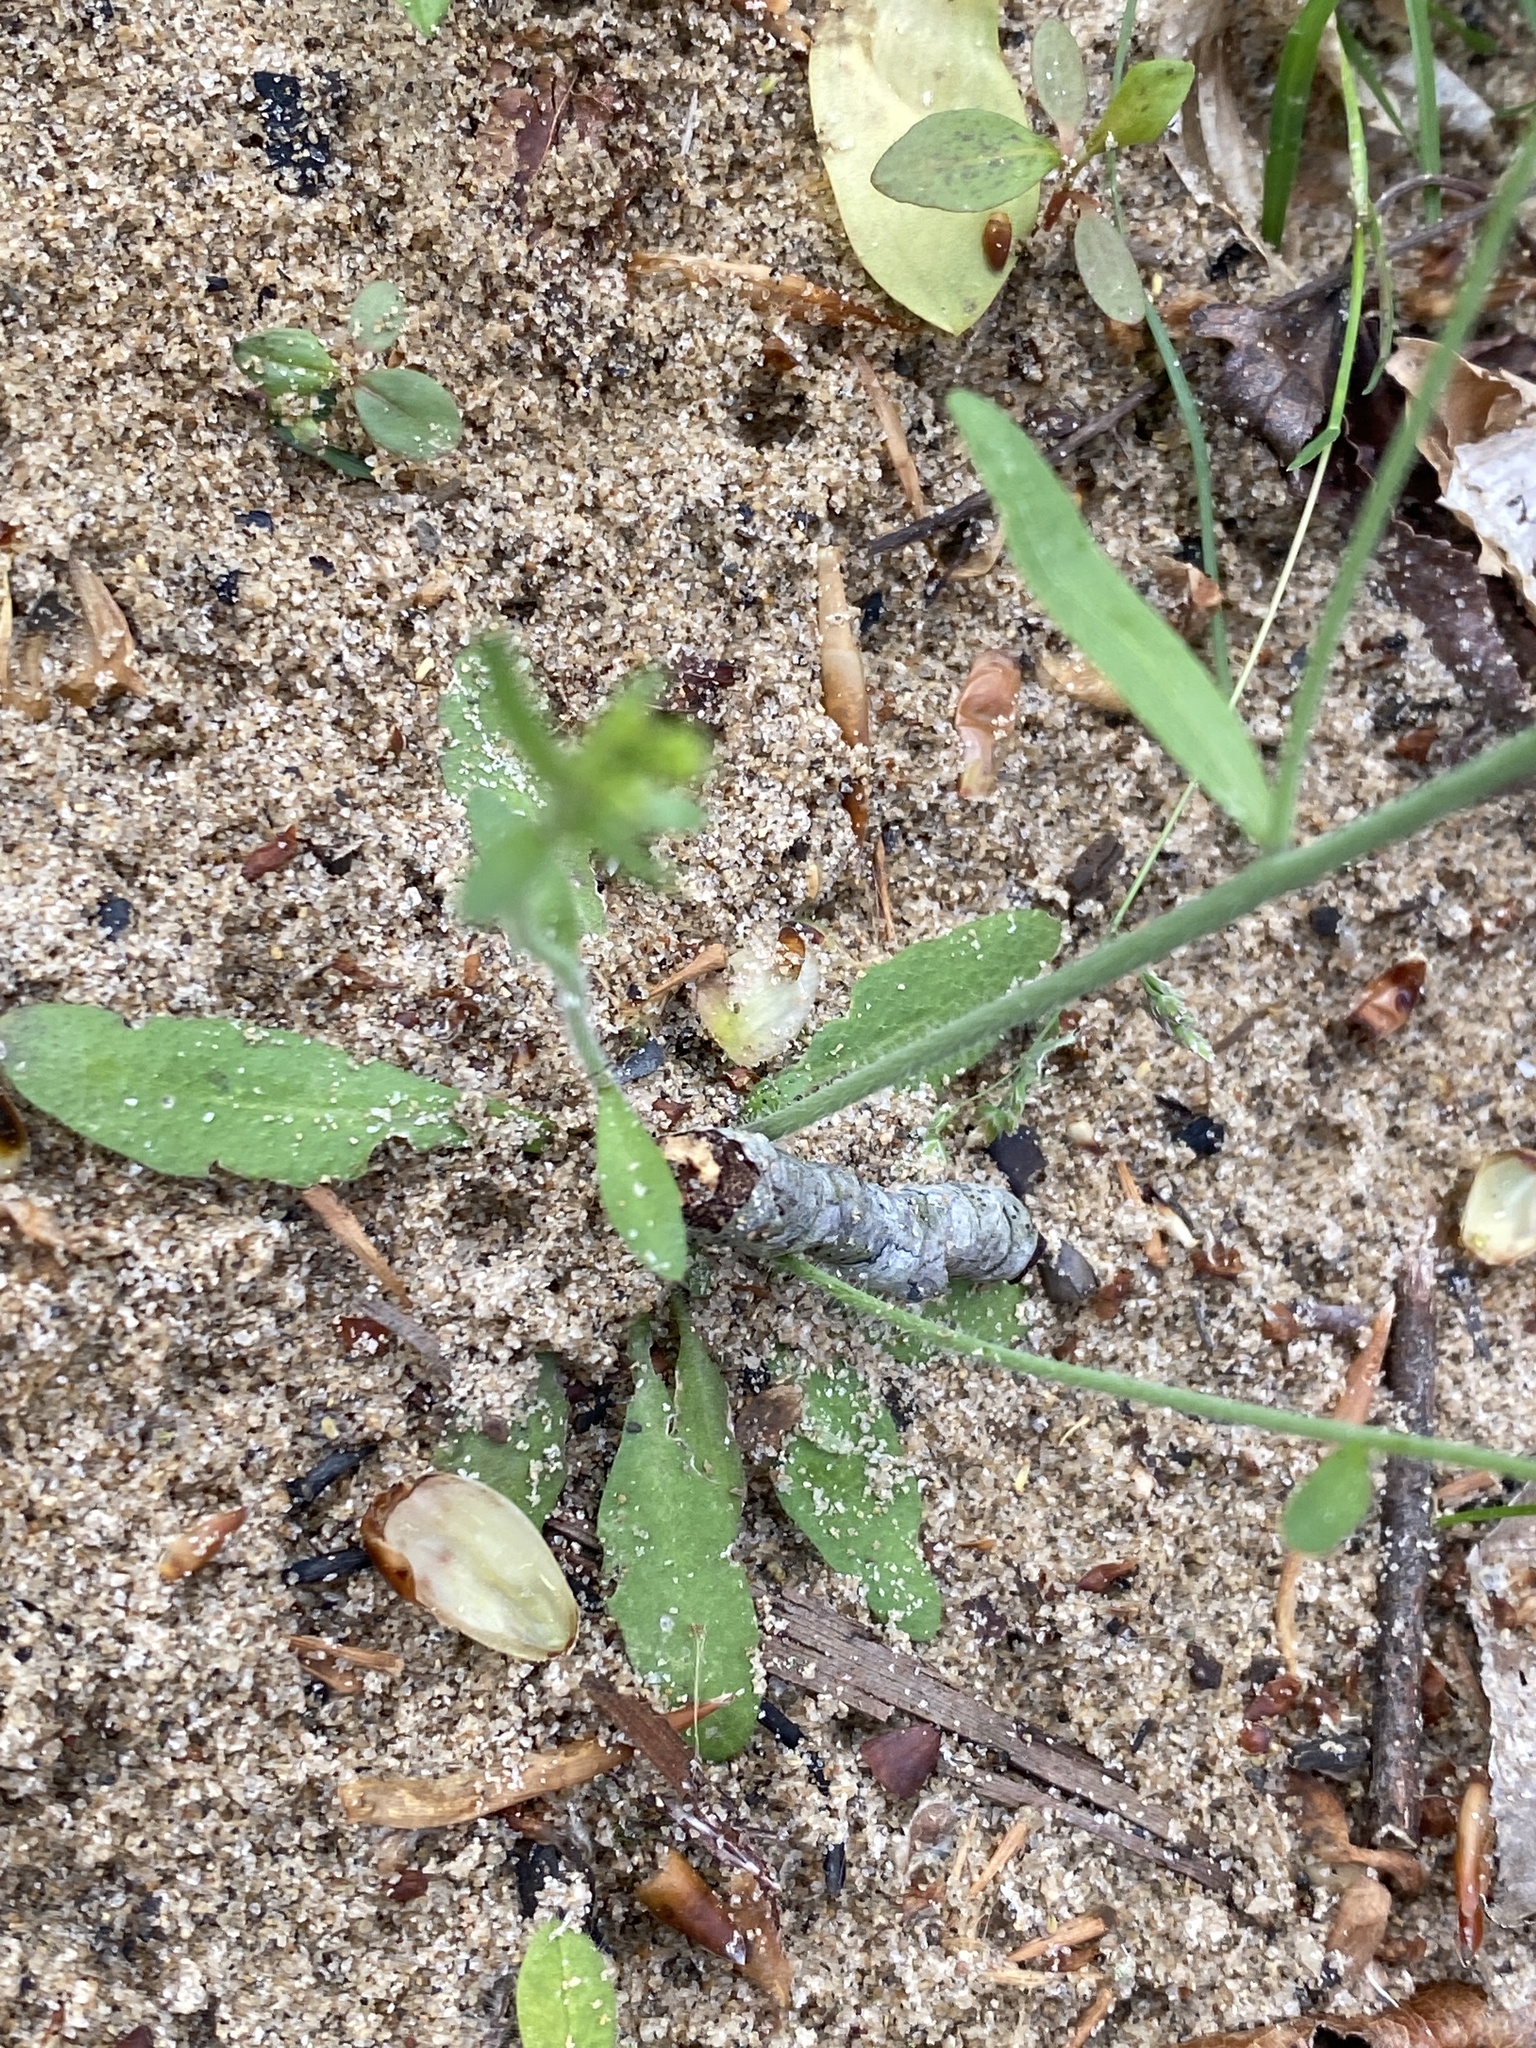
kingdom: Plantae
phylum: Tracheophyta
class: Magnoliopsida
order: Brassicales
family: Brassicaceae
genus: Arabidopsis
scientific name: Arabidopsis thaliana
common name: Thale cress
